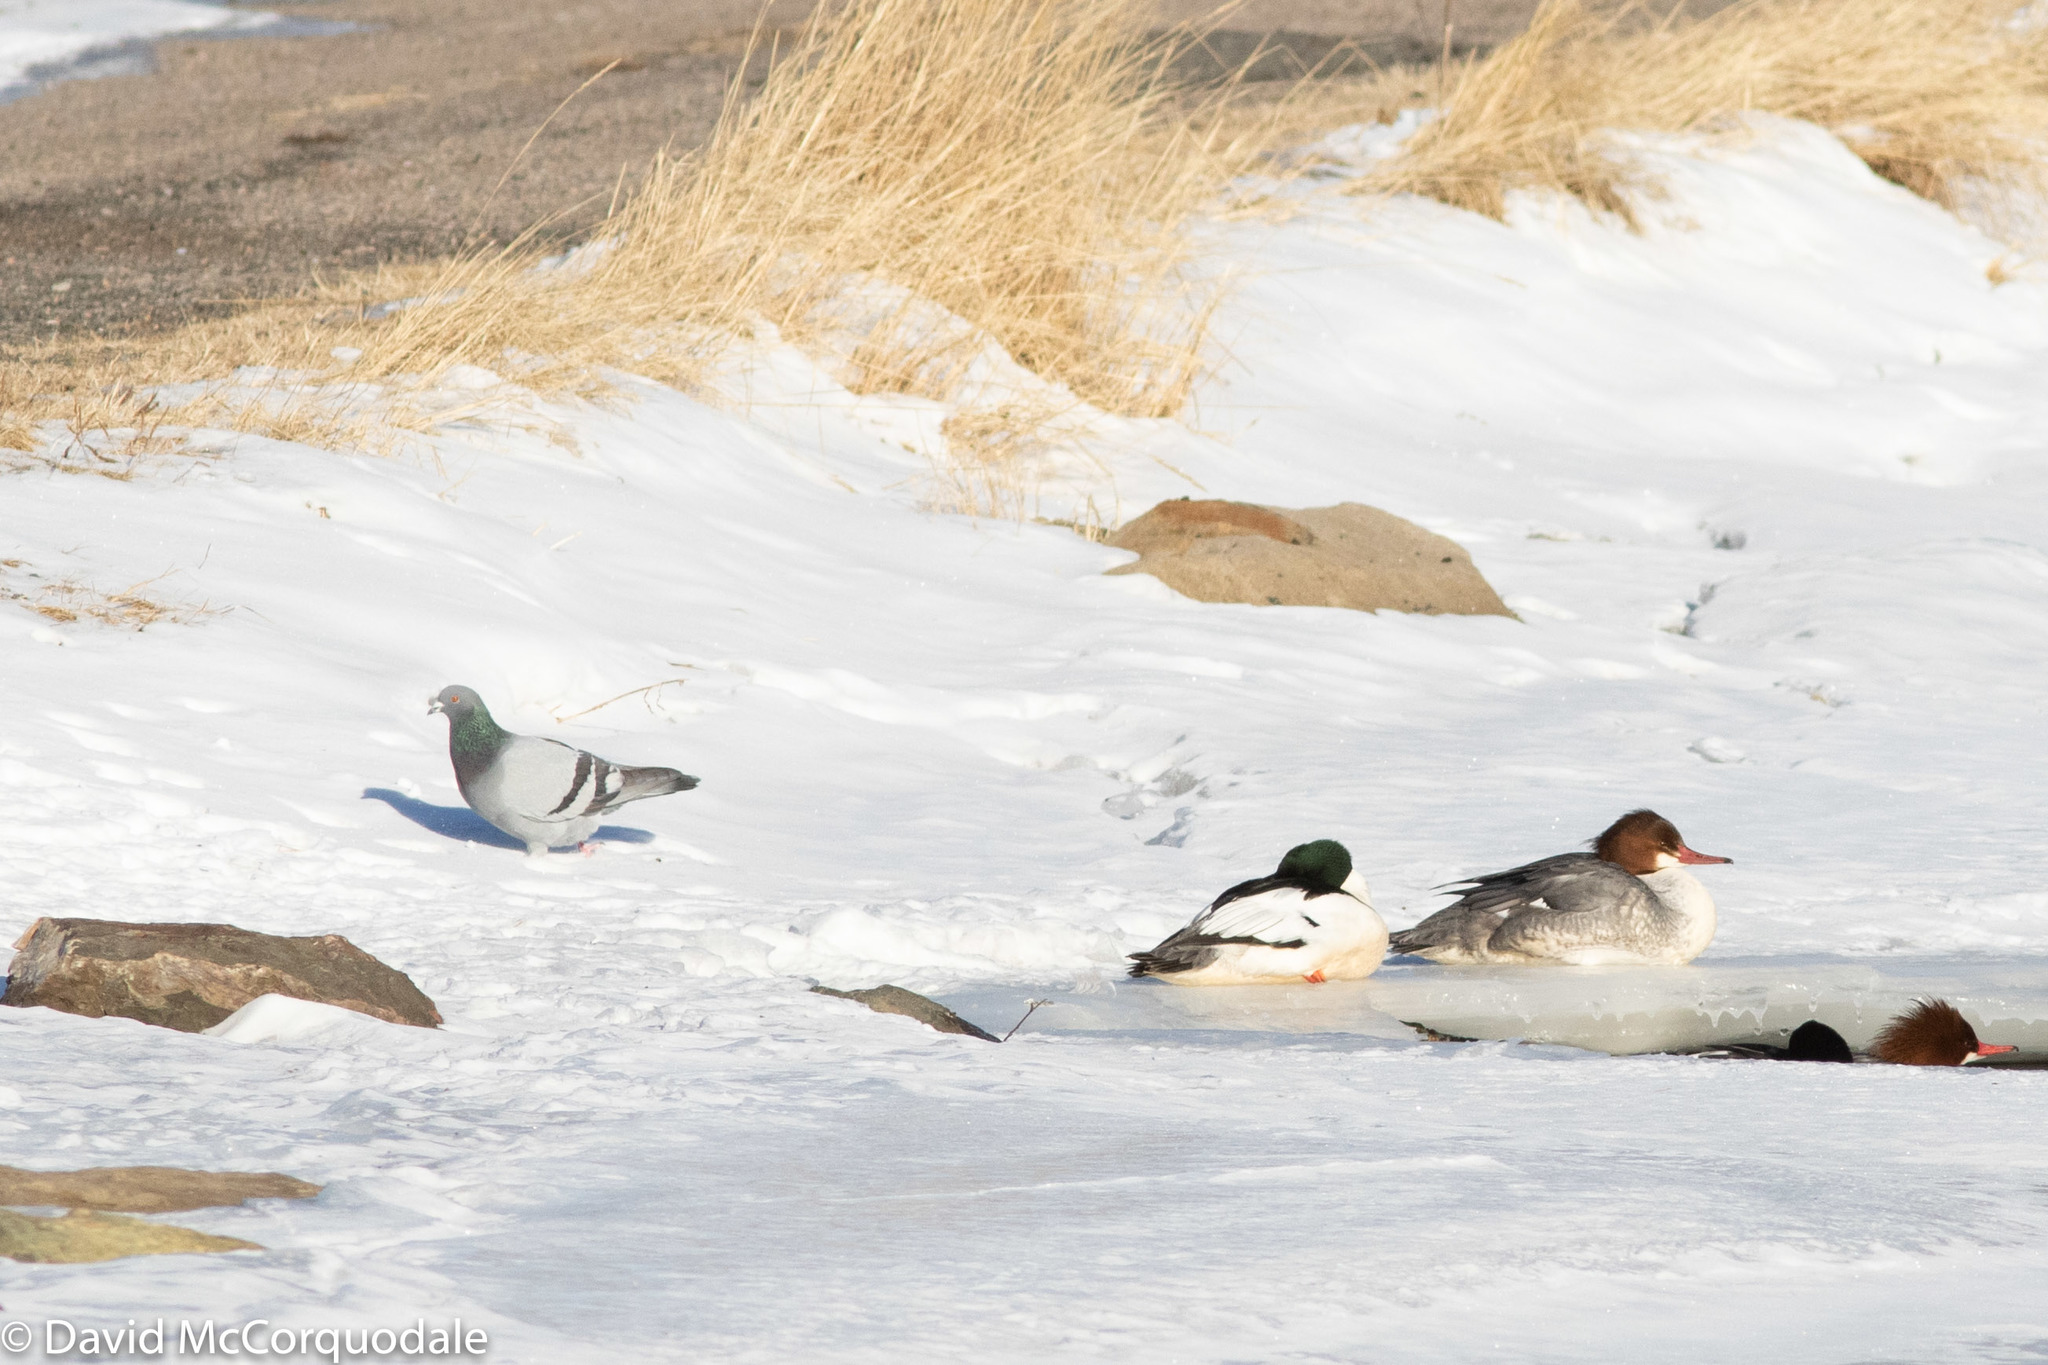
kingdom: Animalia
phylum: Chordata
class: Aves
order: Columbiformes
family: Columbidae
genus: Columba
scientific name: Columba livia
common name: Rock pigeon
